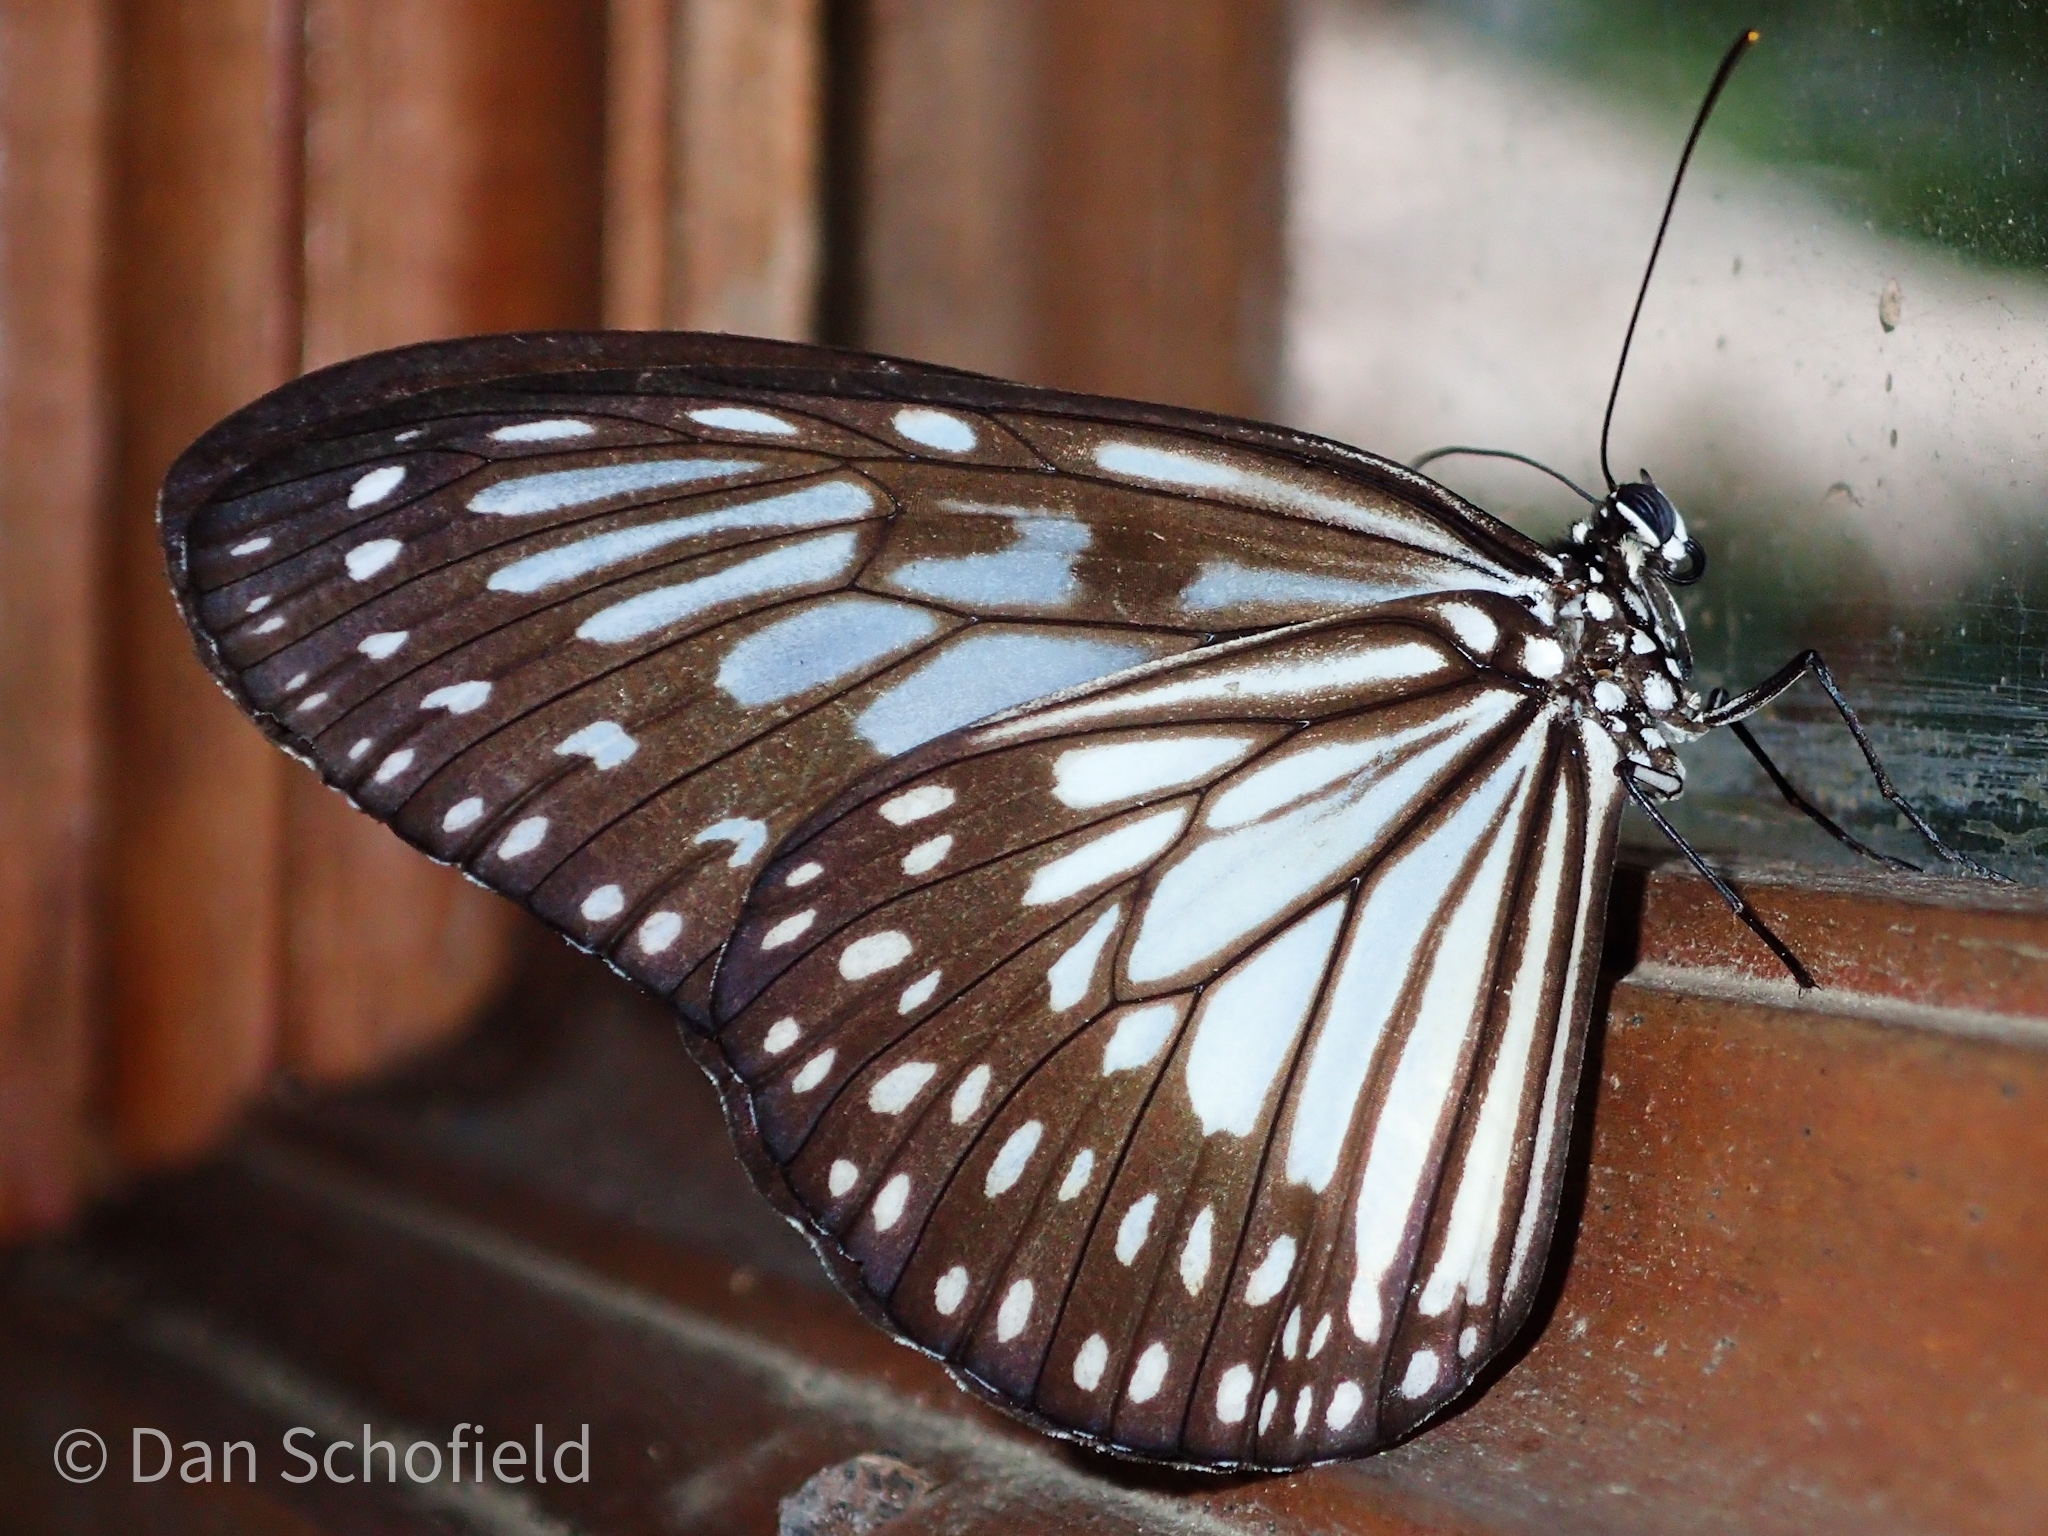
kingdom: Animalia
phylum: Arthropoda
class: Insecta
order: Lepidoptera
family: Nymphalidae
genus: Ideopsis
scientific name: Ideopsis juventa
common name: Grey glassy tiger
